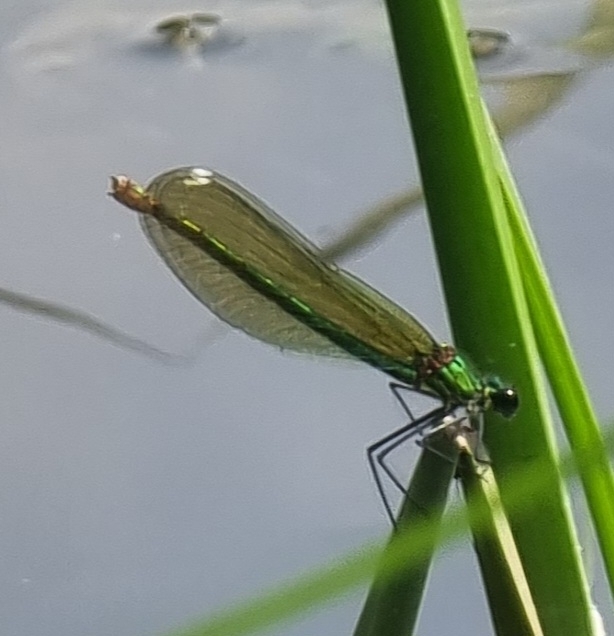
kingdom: Animalia
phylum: Arthropoda
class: Insecta
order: Odonata
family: Calopterygidae
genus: Calopteryx
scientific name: Calopteryx splendens
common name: Banded demoiselle
